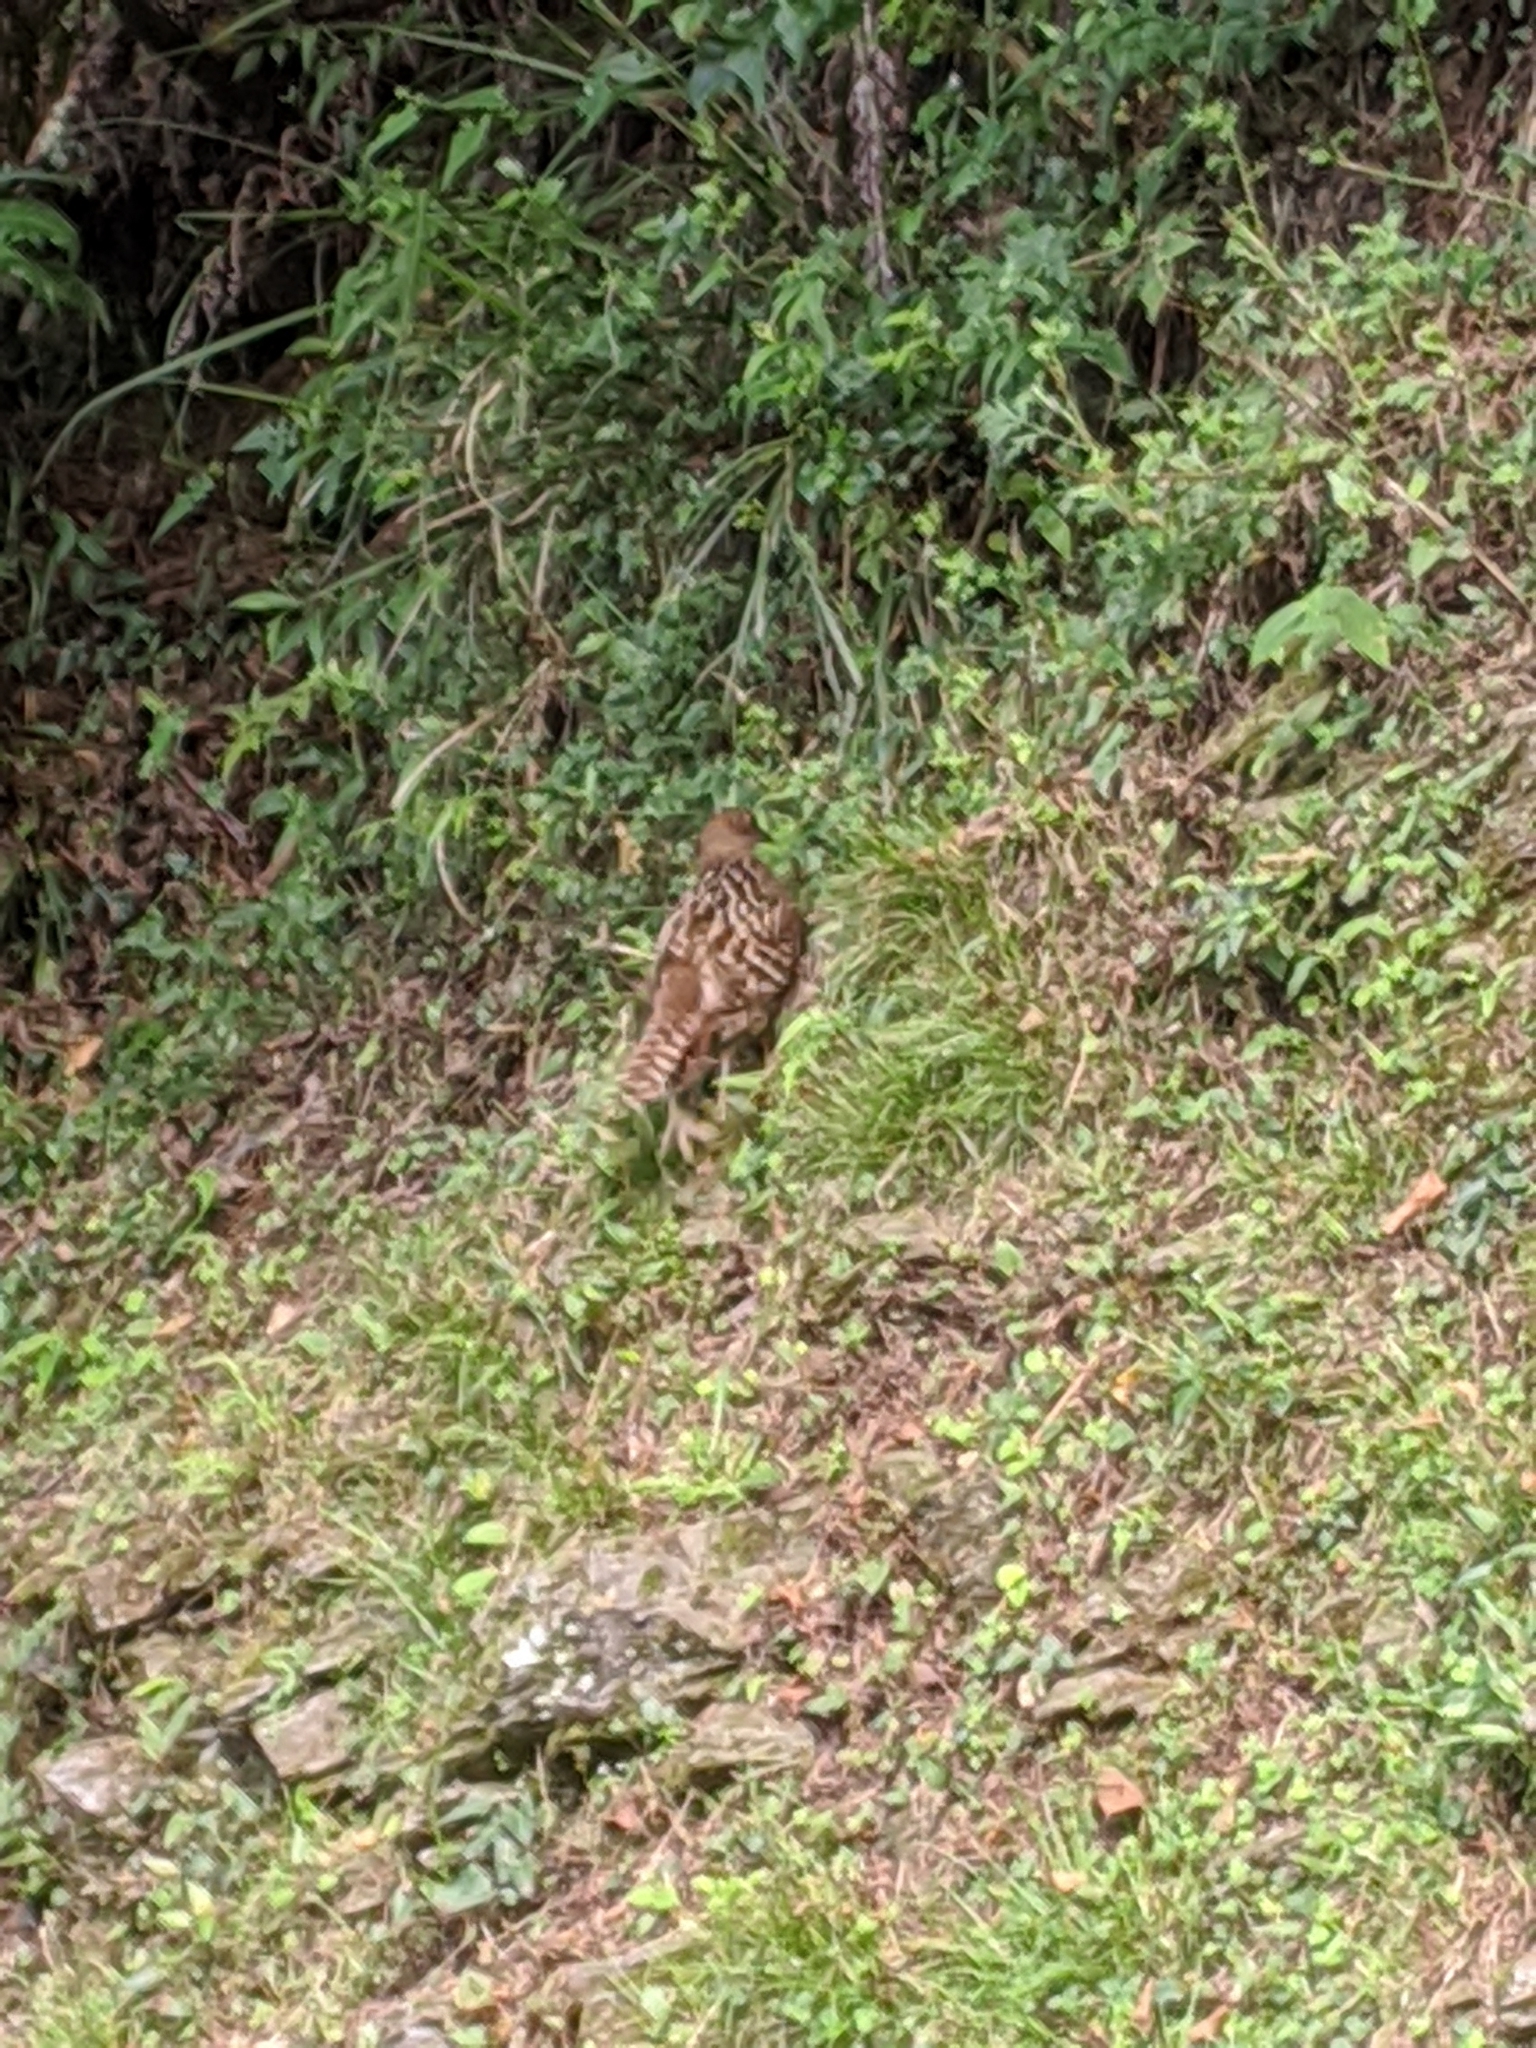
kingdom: Animalia
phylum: Chordata
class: Aves
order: Galliformes
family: Phasianidae
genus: Syrmaticus
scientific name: Syrmaticus mikado
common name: Mikado pheasant
